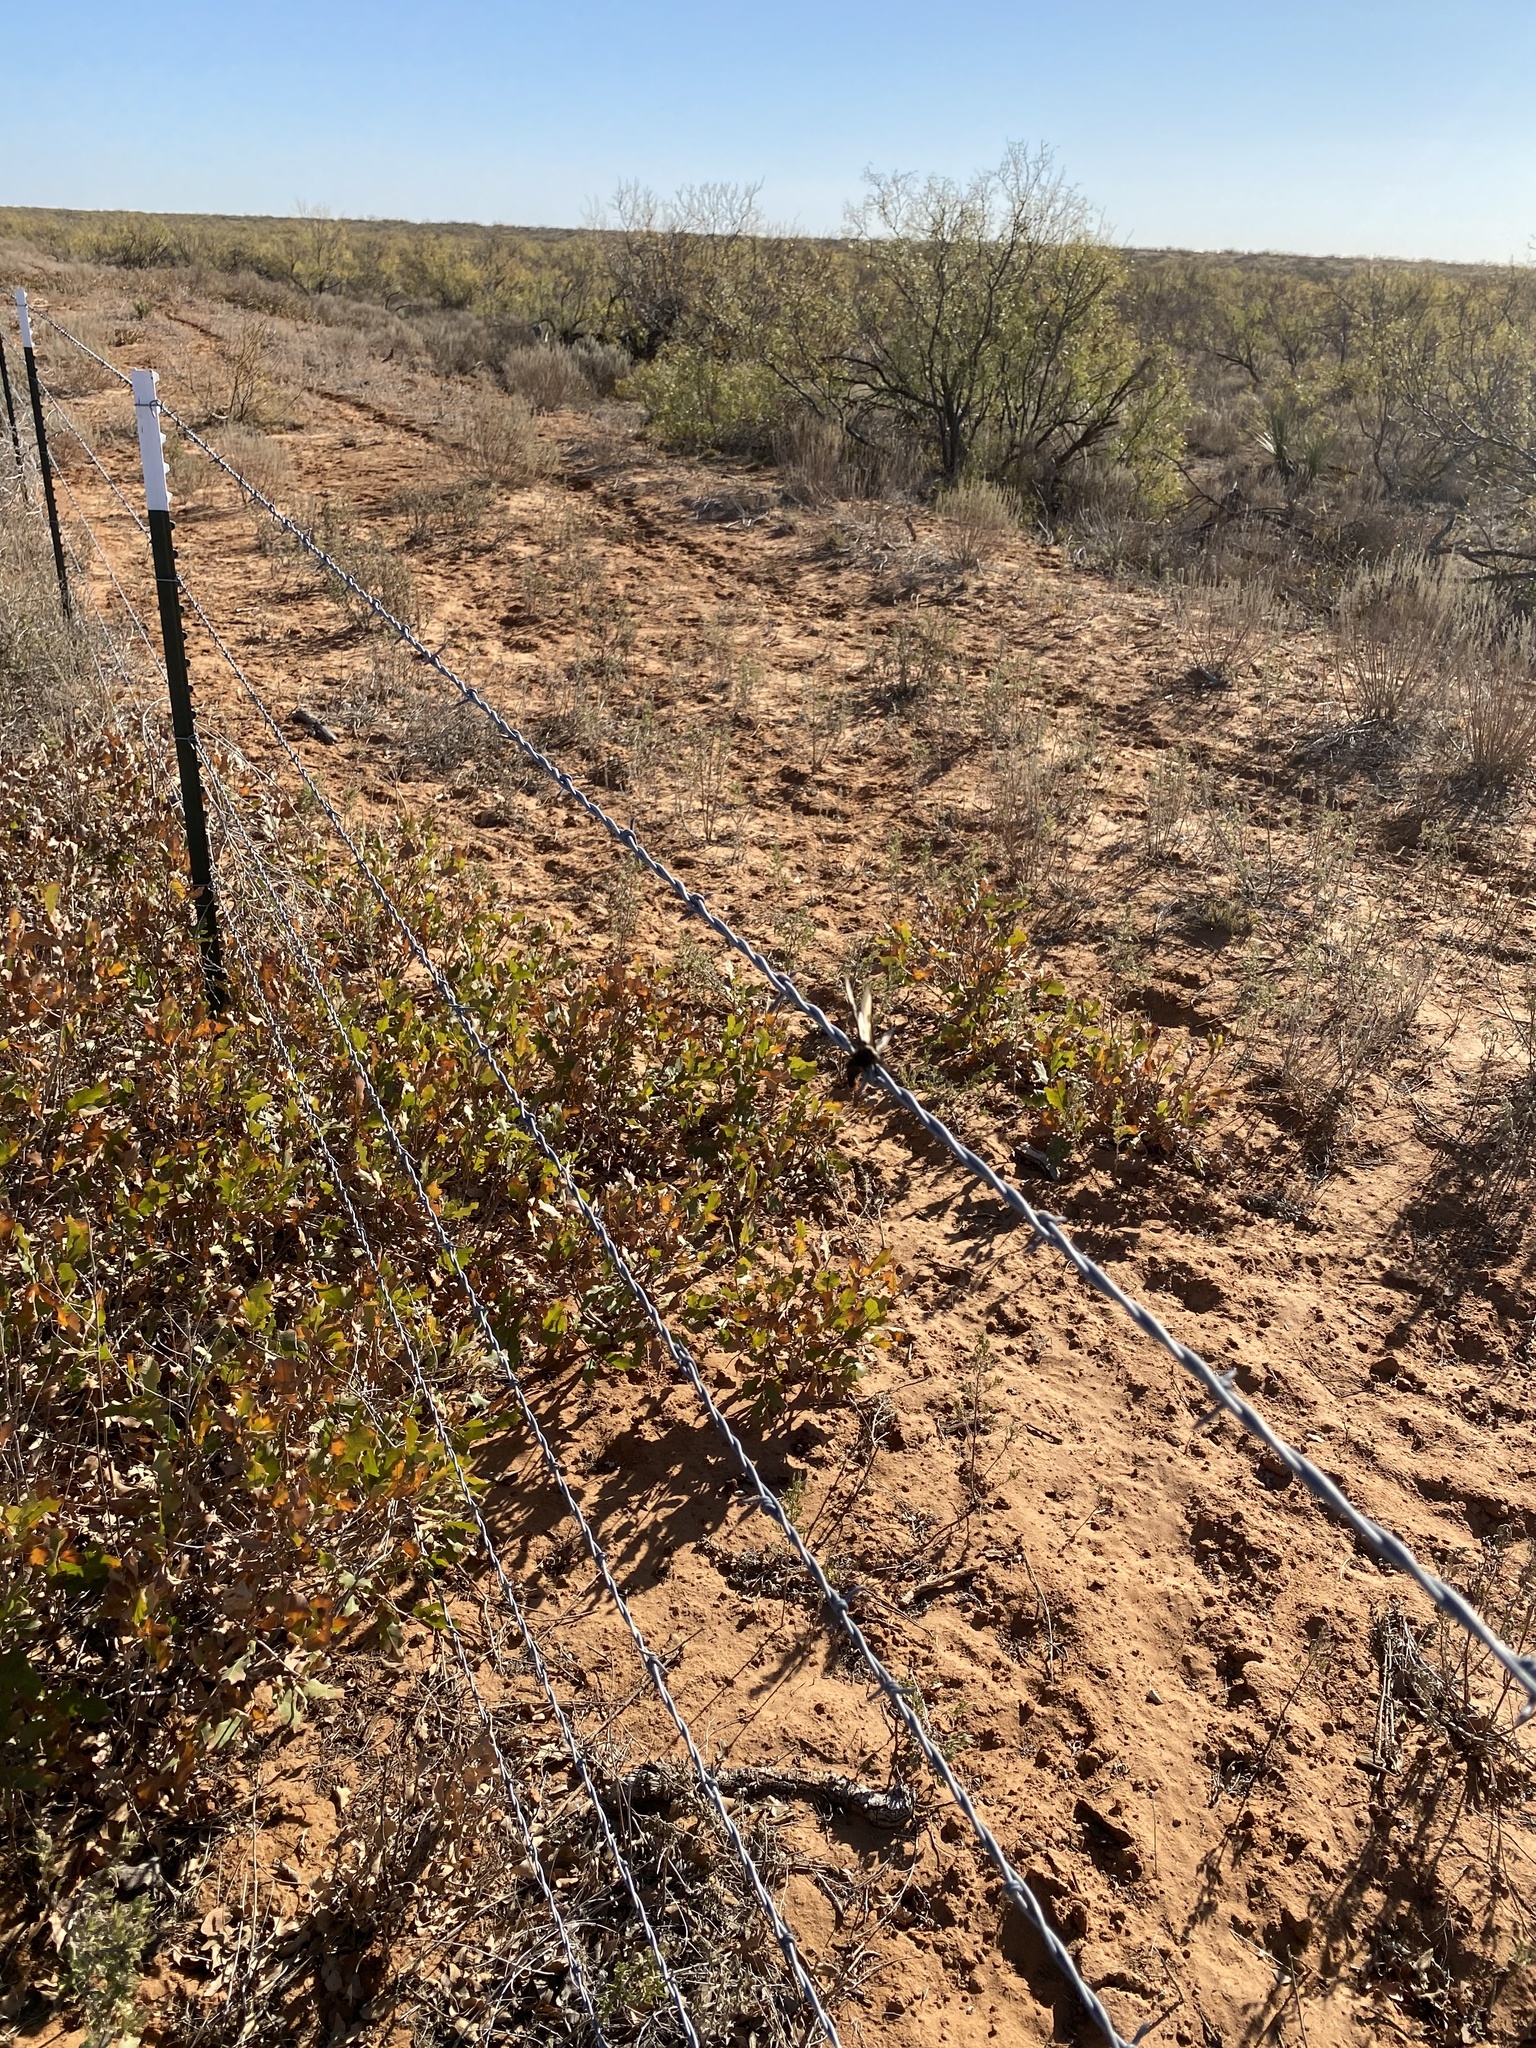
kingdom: Animalia
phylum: Chordata
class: Aves
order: Passeriformes
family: Laniidae
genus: Lanius
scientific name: Lanius ludovicianus
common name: Loggerhead shrike
